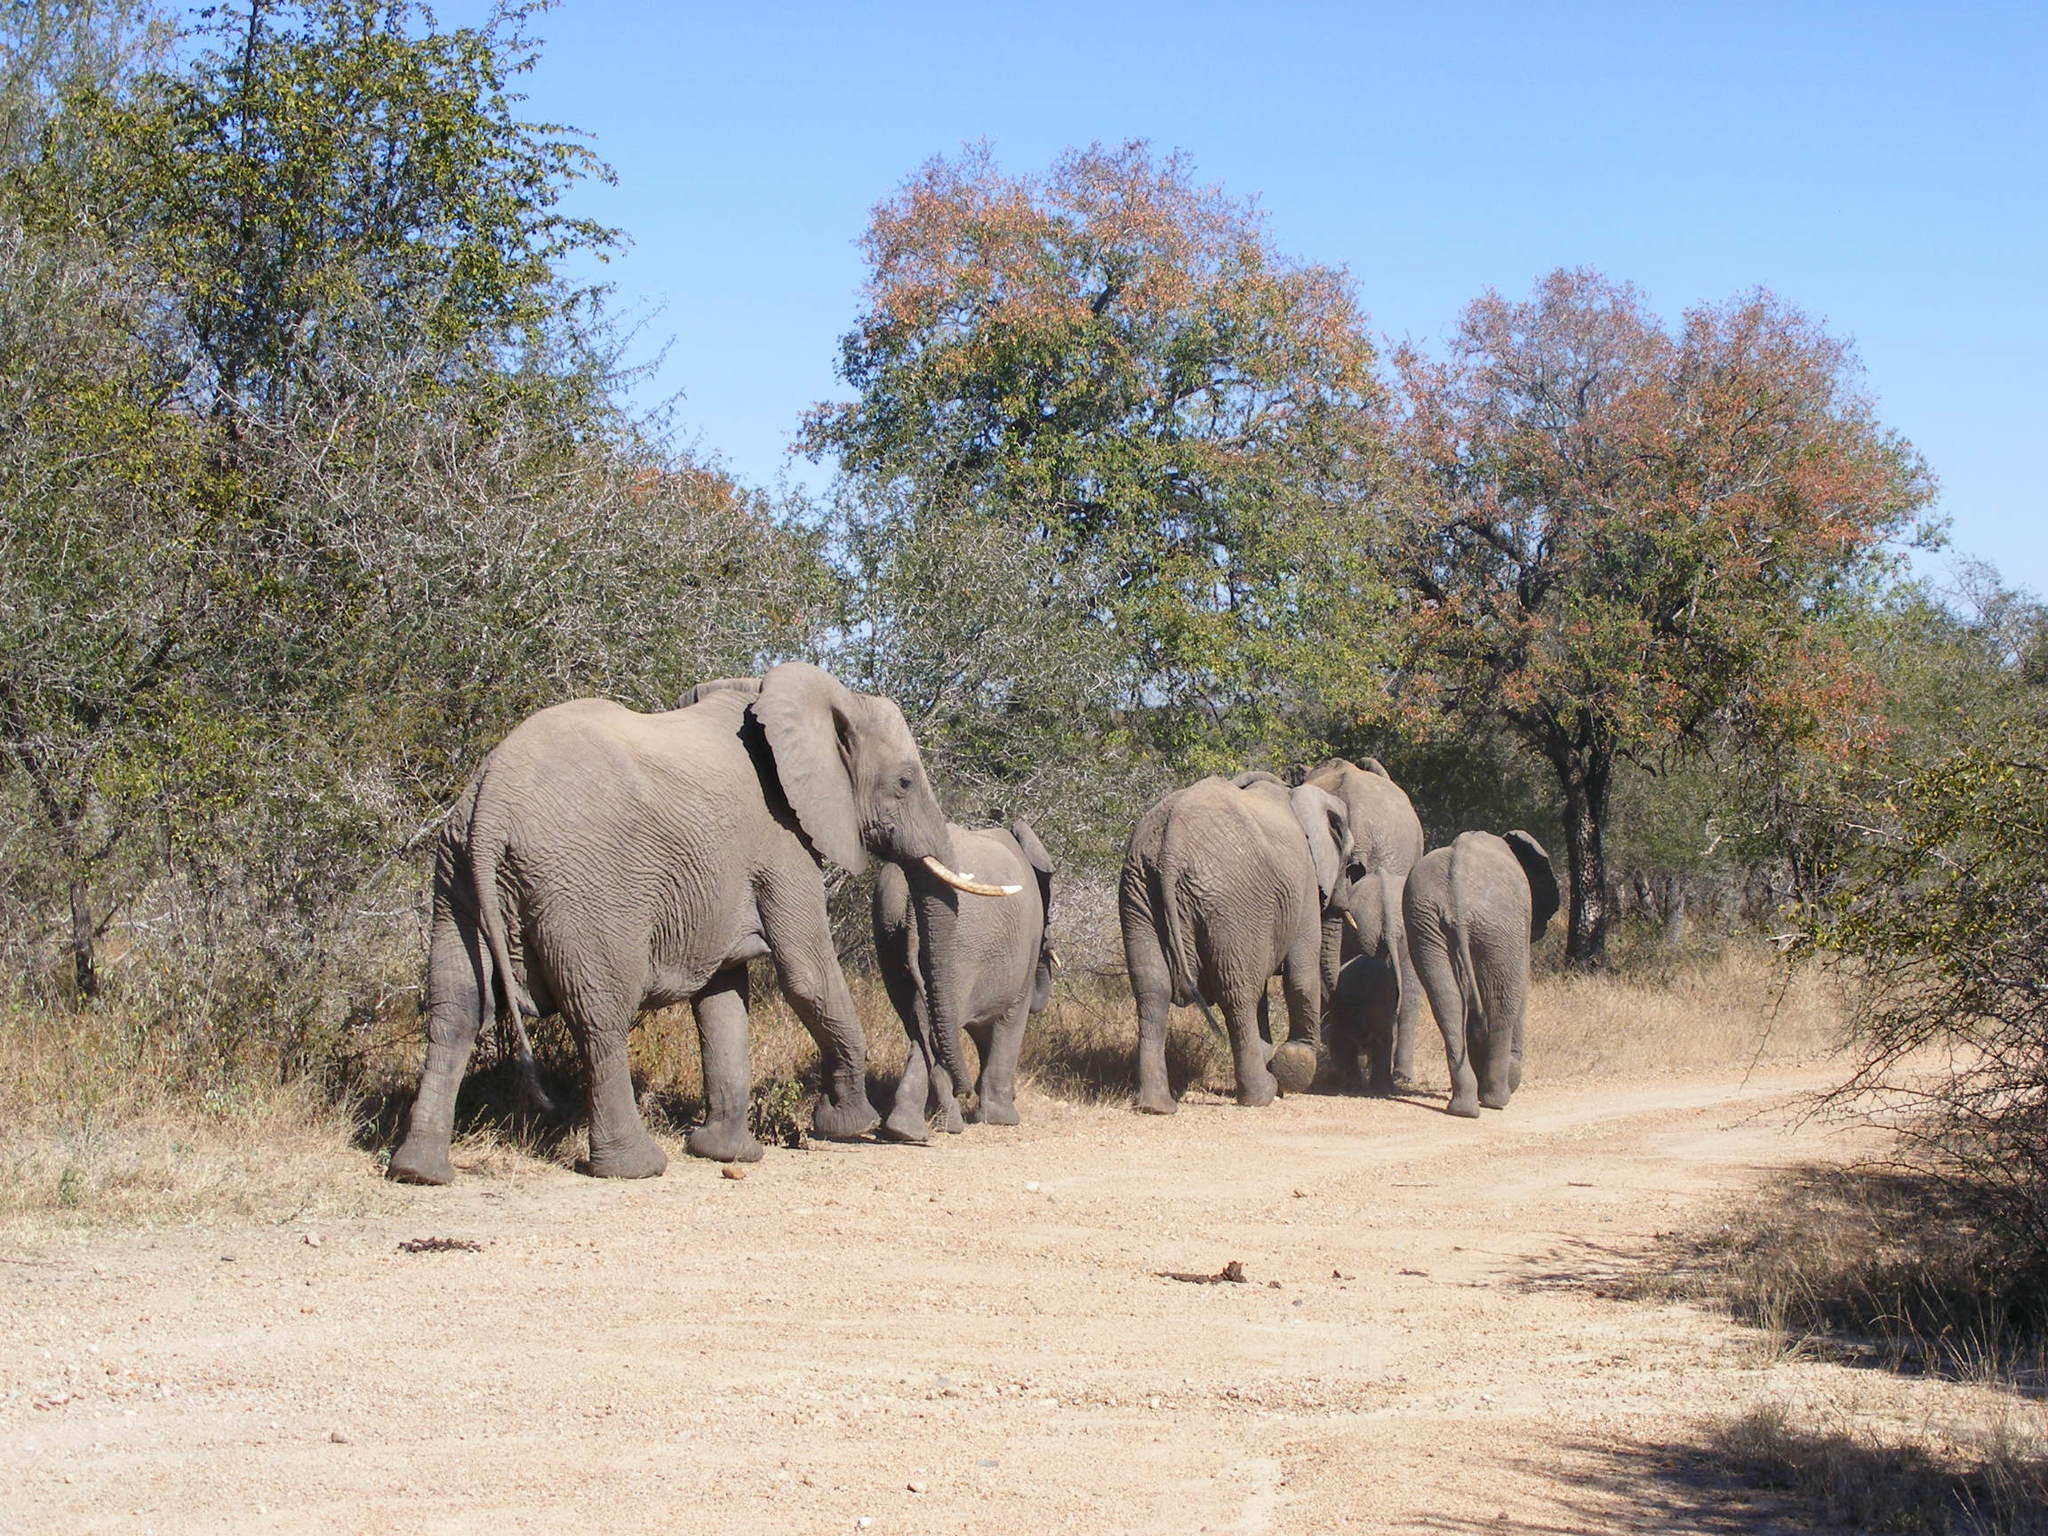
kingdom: Animalia
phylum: Chordata
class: Mammalia
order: Proboscidea
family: Elephantidae
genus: Loxodonta
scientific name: Loxodonta africana
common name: African elephant
